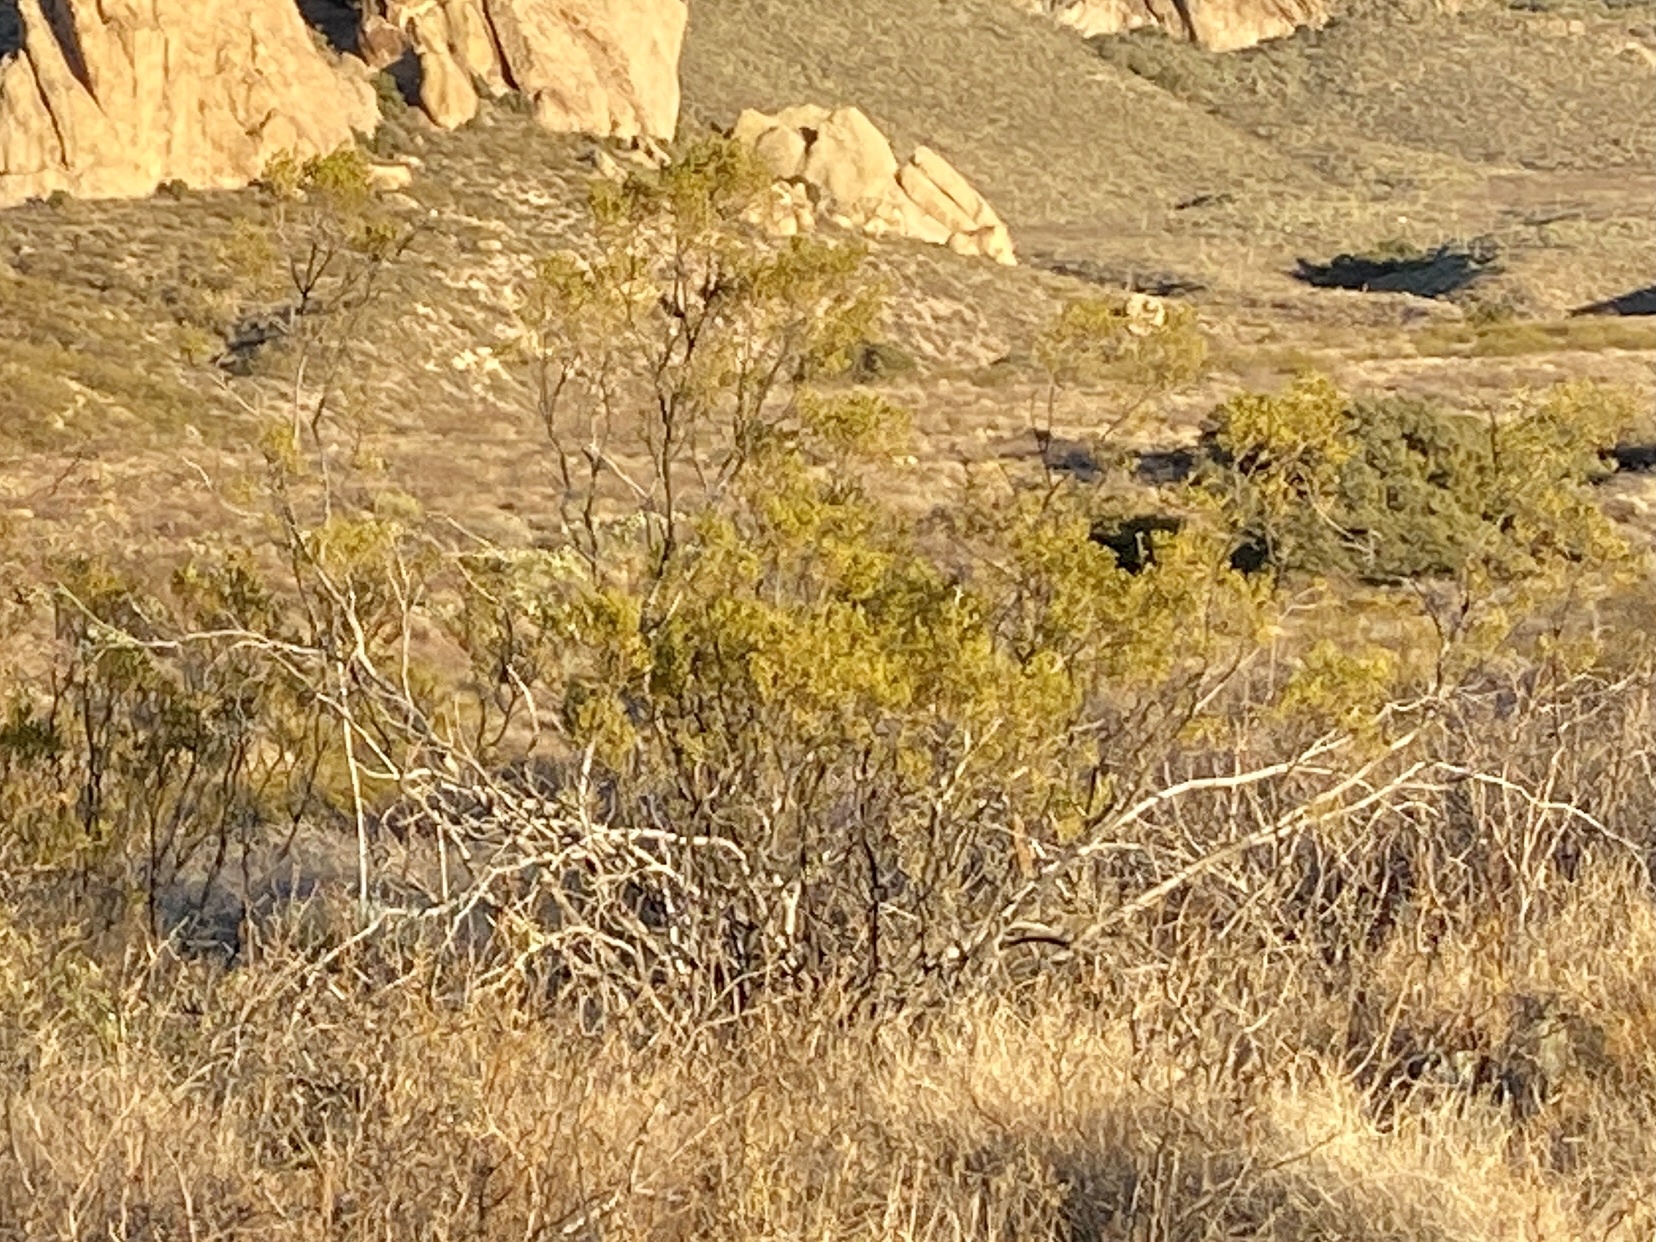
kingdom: Plantae
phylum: Tracheophyta
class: Magnoliopsida
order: Zygophyllales
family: Zygophyllaceae
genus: Larrea
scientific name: Larrea tridentata
